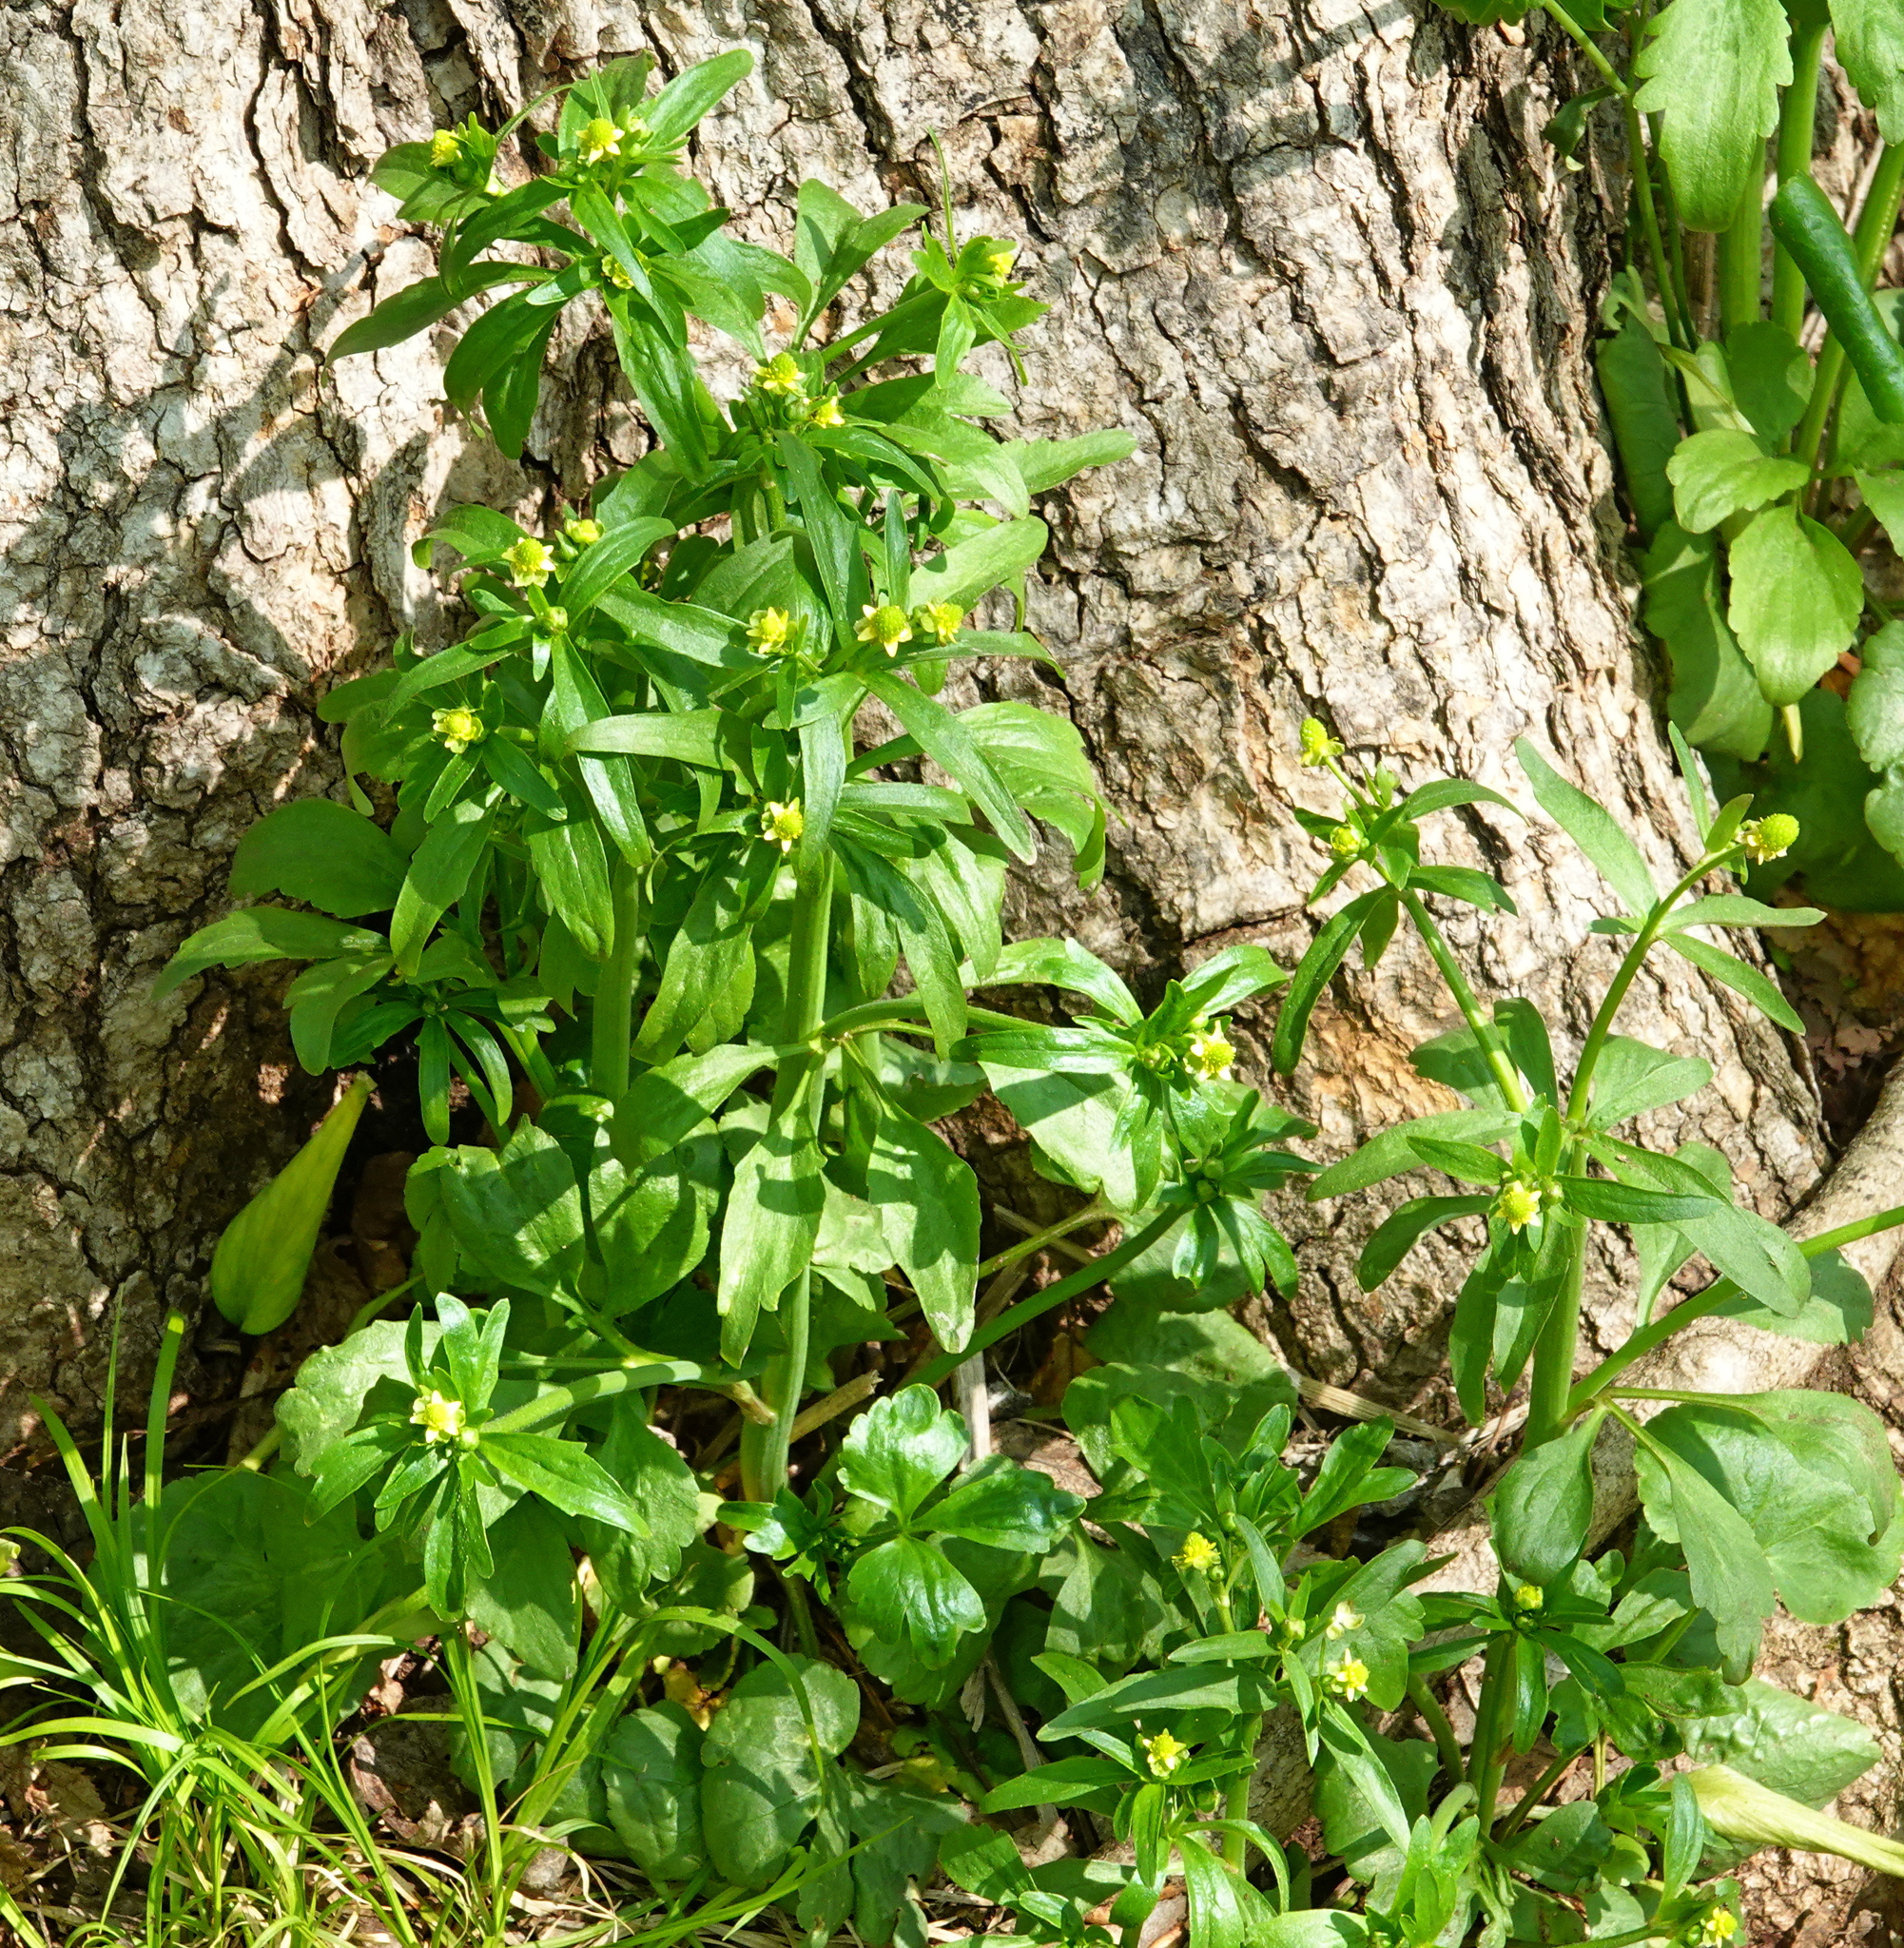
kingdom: Plantae
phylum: Tracheophyta
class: Magnoliopsida
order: Ranunculales
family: Ranunculaceae
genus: Ranunculus
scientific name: Ranunculus abortivus
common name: Early wood buttercup
